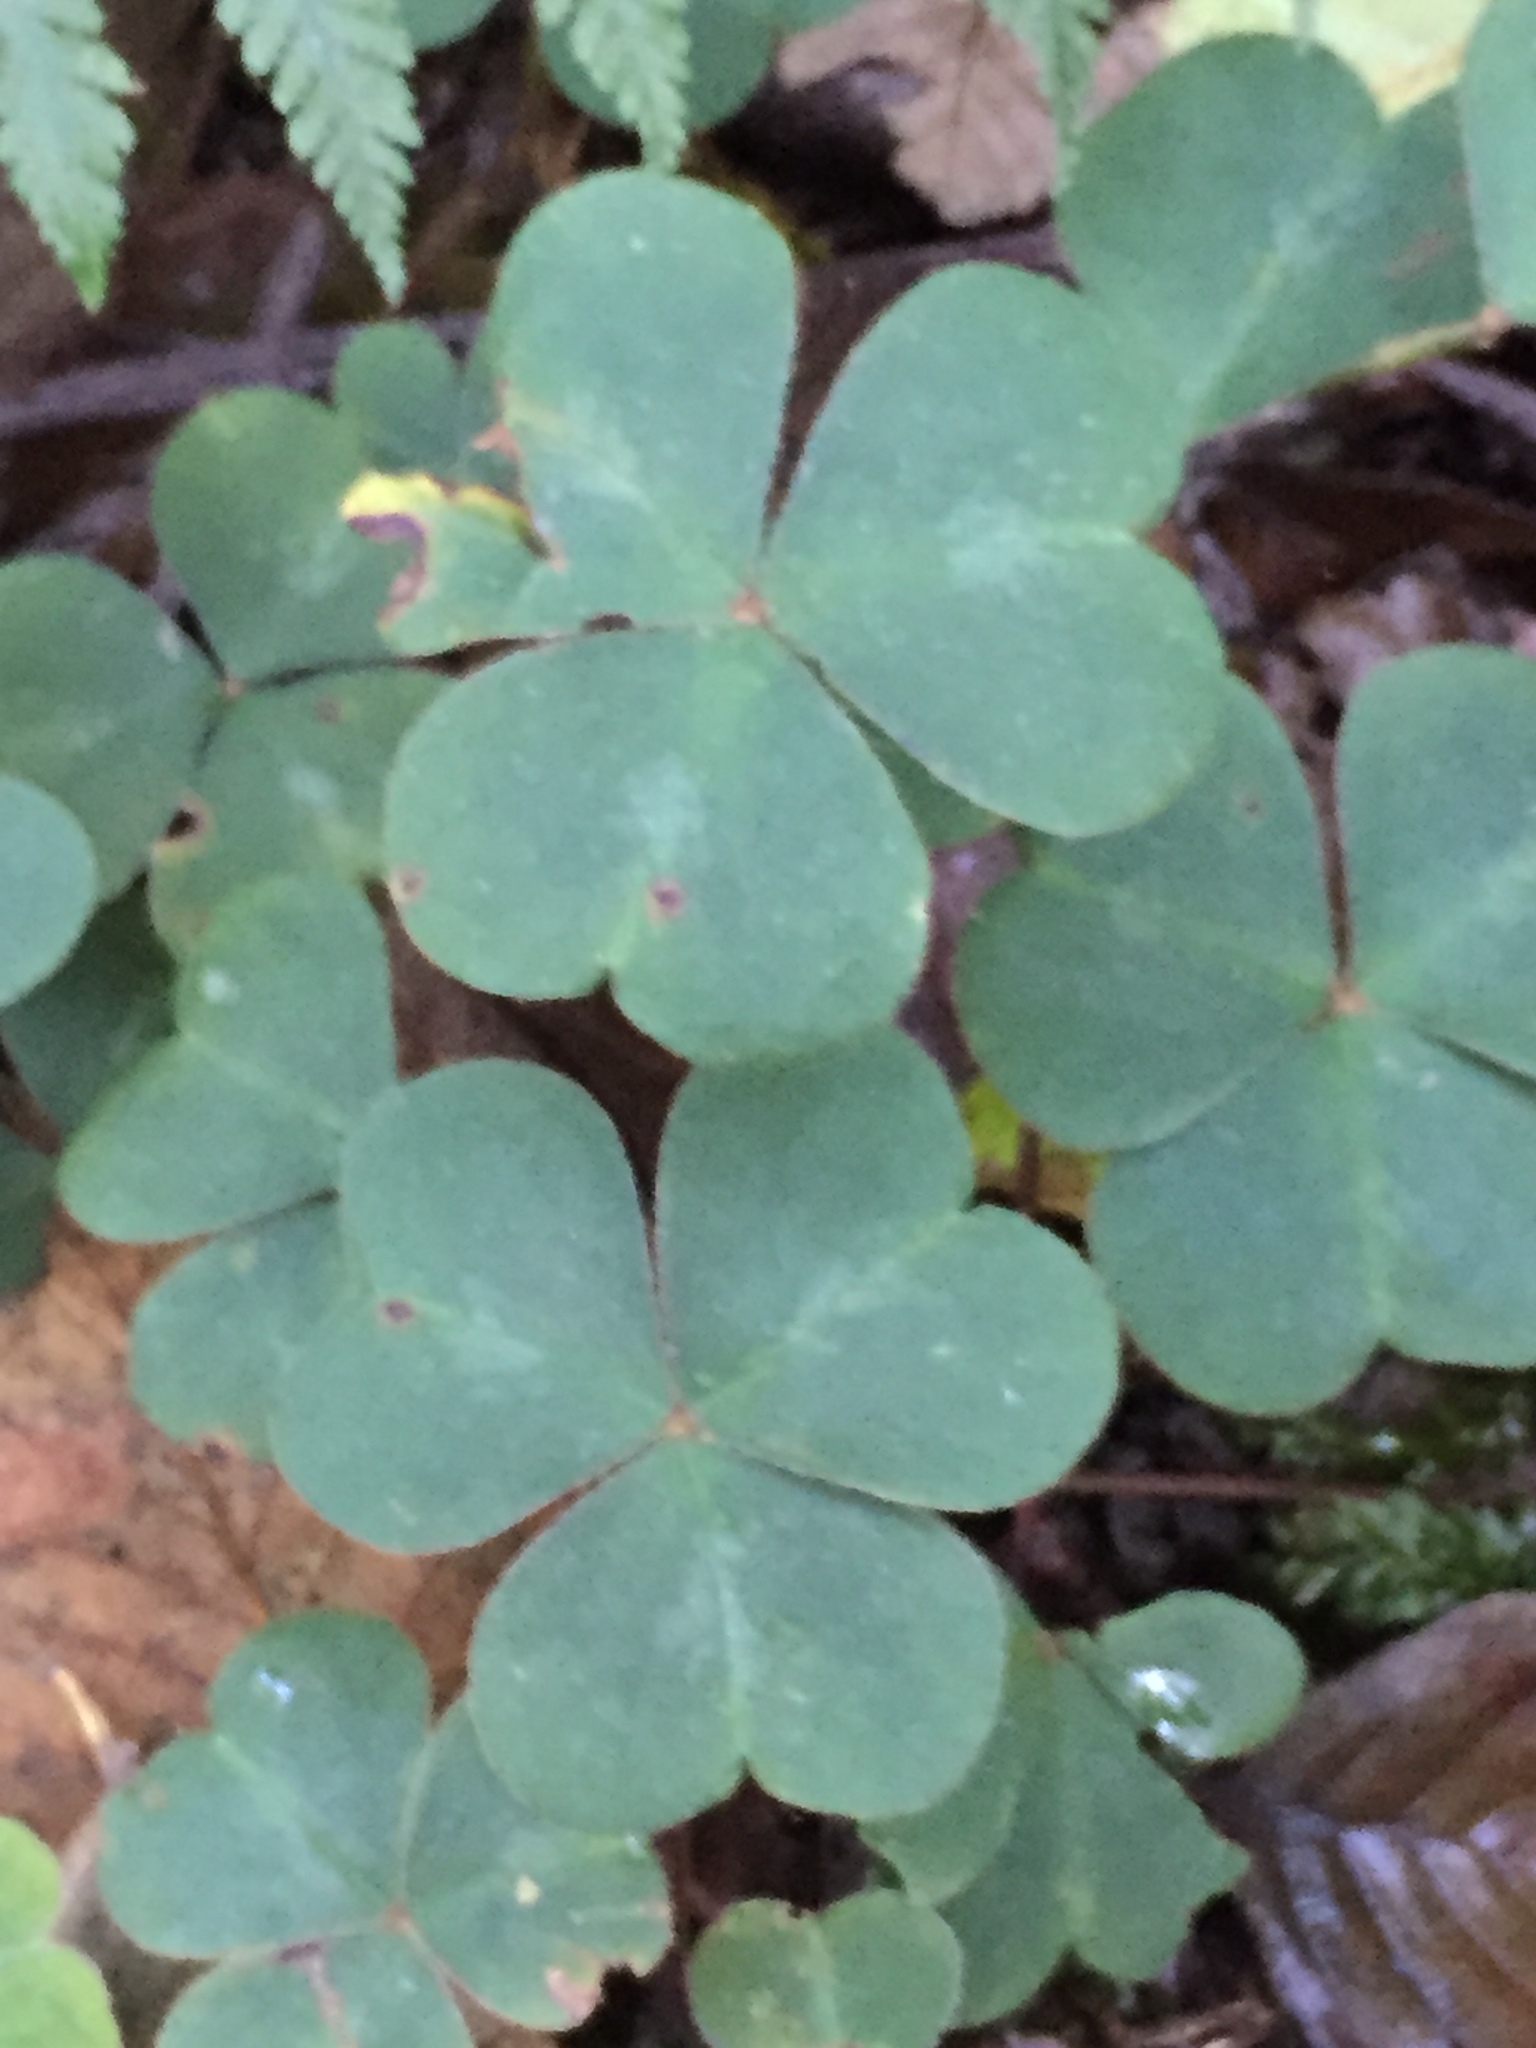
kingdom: Plantae
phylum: Tracheophyta
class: Magnoliopsida
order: Oxalidales
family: Oxalidaceae
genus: Oxalis
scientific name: Oxalis oregana
